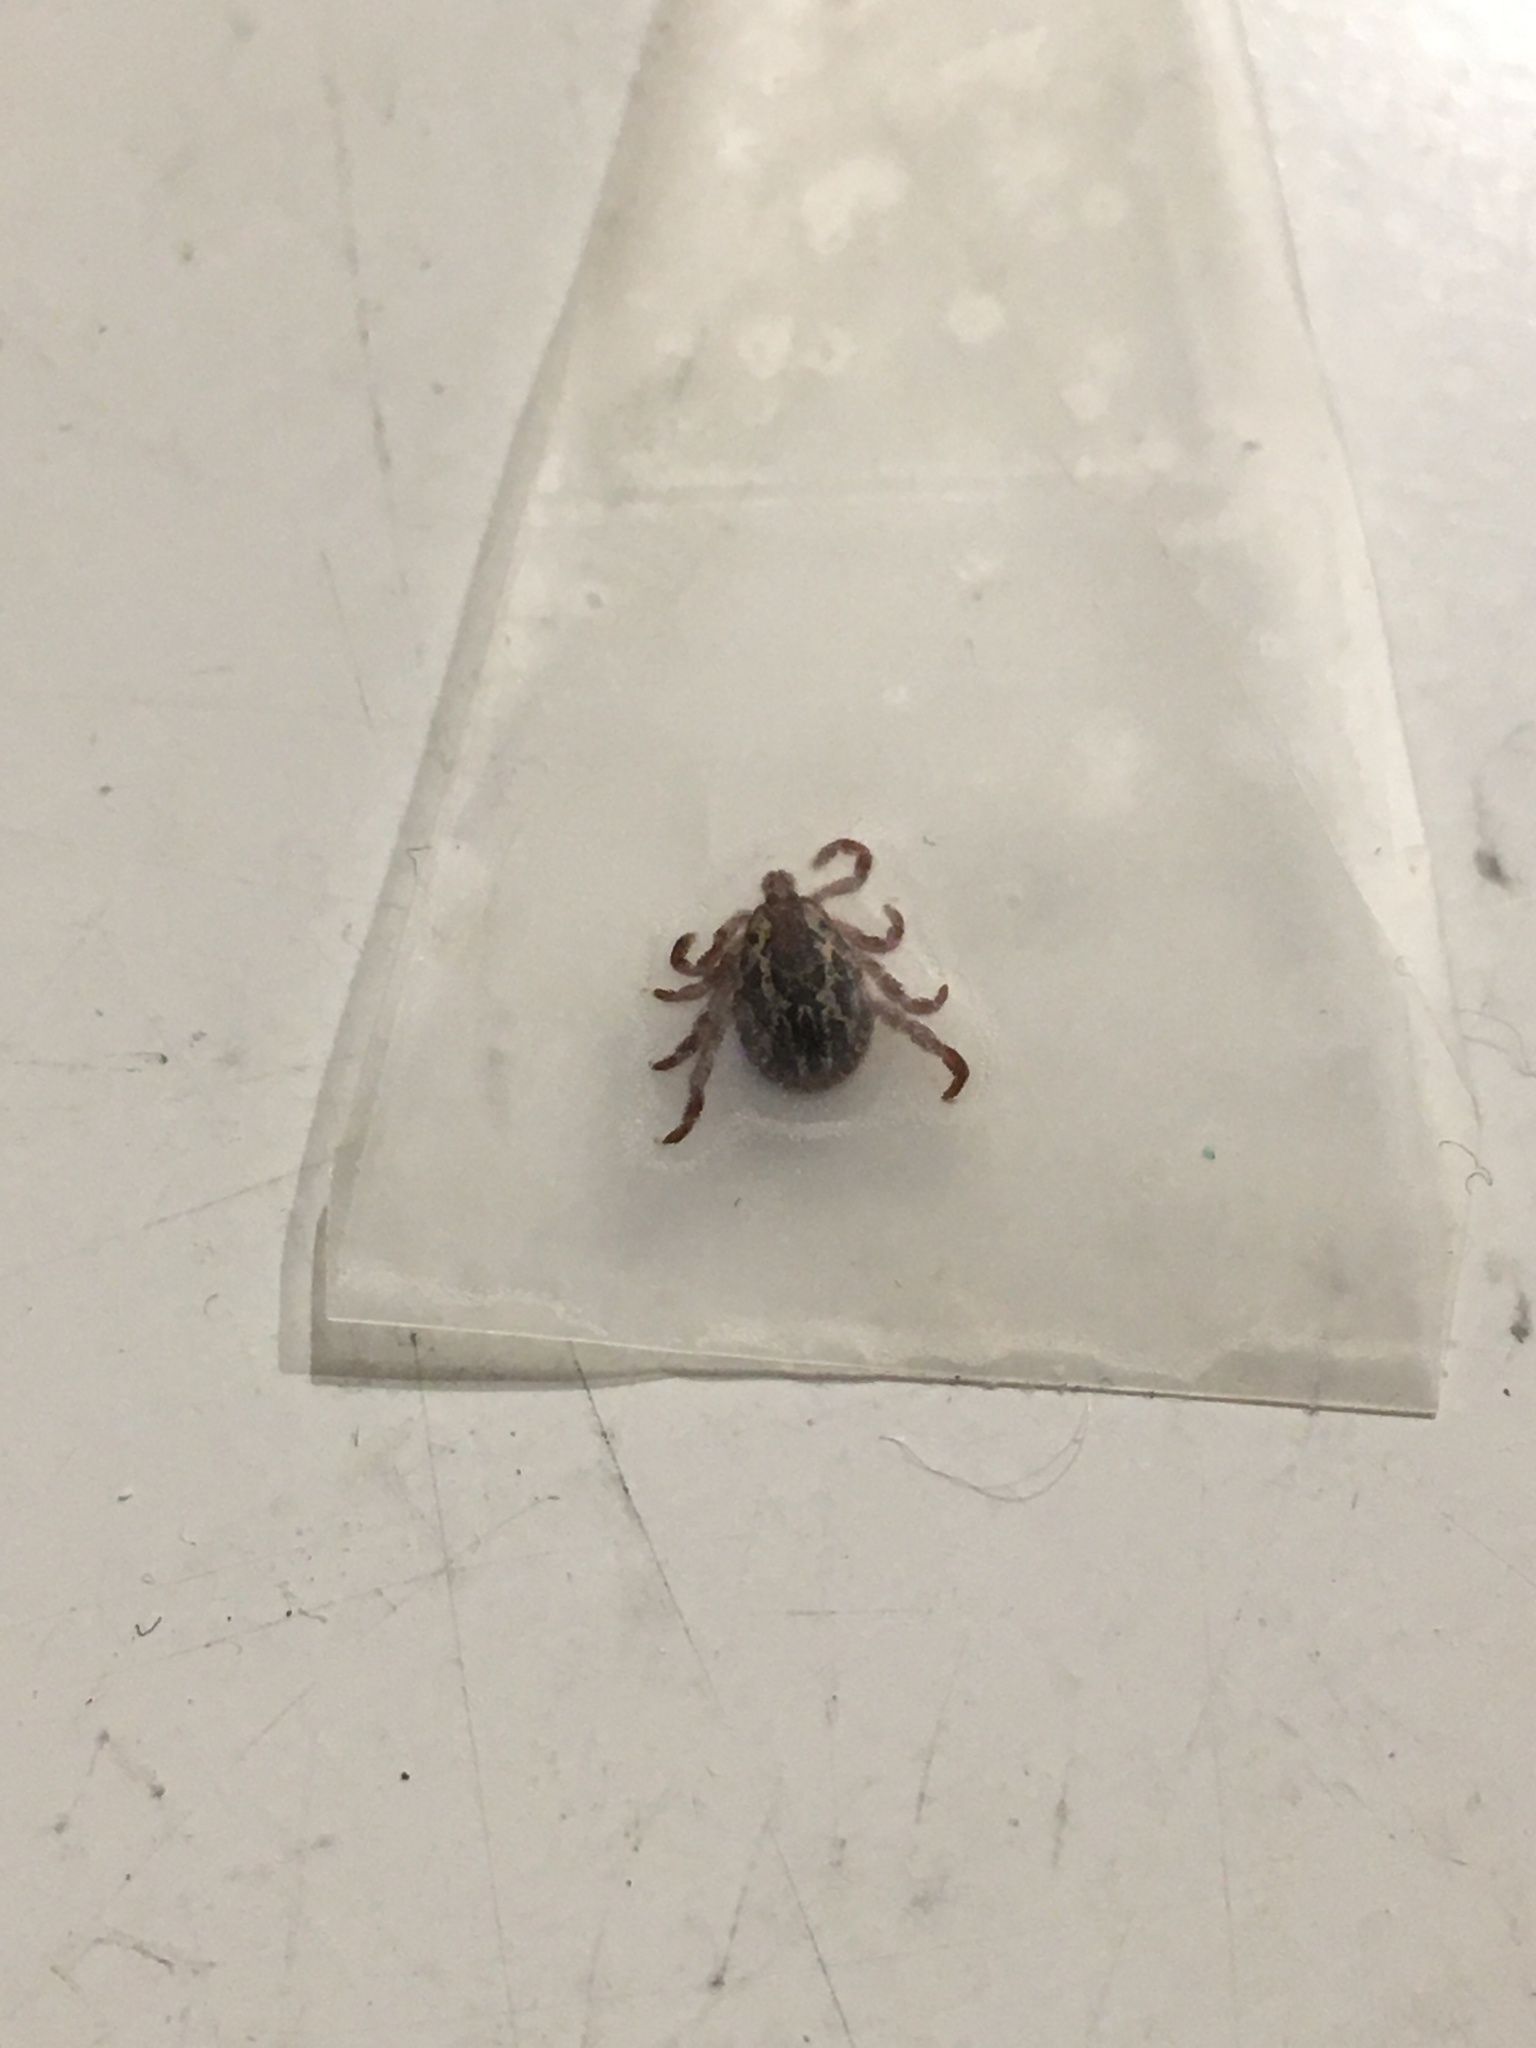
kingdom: Animalia
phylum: Arthropoda
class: Arachnida
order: Ixodida
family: Ixodidae
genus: Dermacentor
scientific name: Dermacentor variabilis
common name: American dog tick
